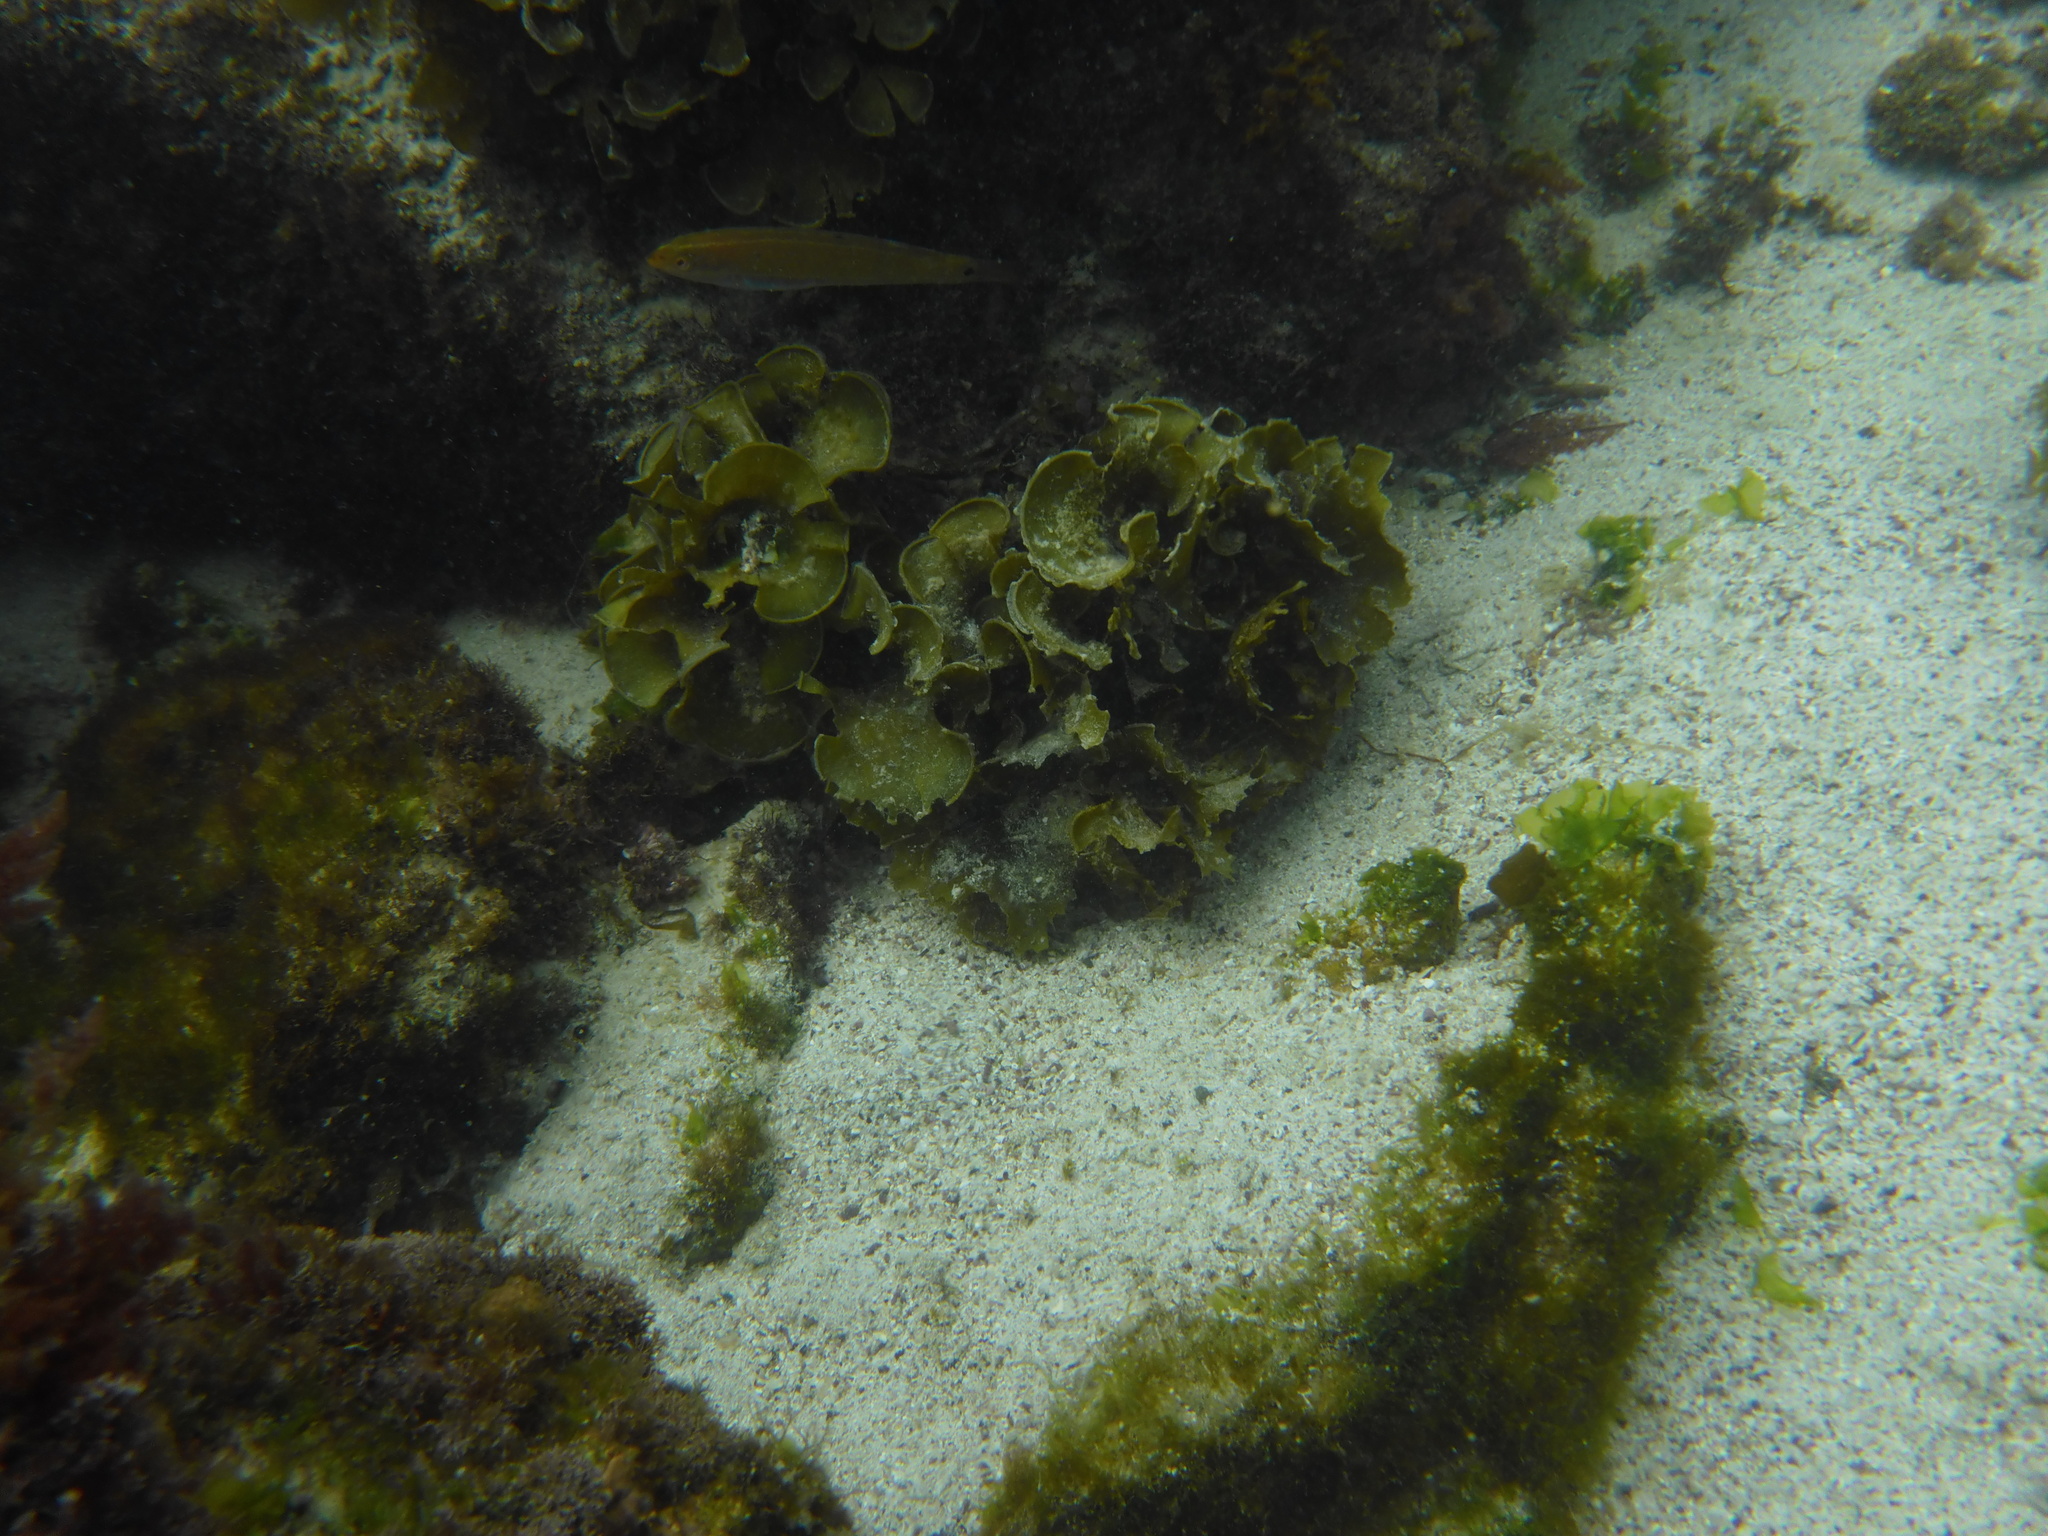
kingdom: Animalia
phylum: Chordata
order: Perciformes
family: Labridae
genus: Halichoeres
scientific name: Halichoeres dispilus
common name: Chameleon wrasse
